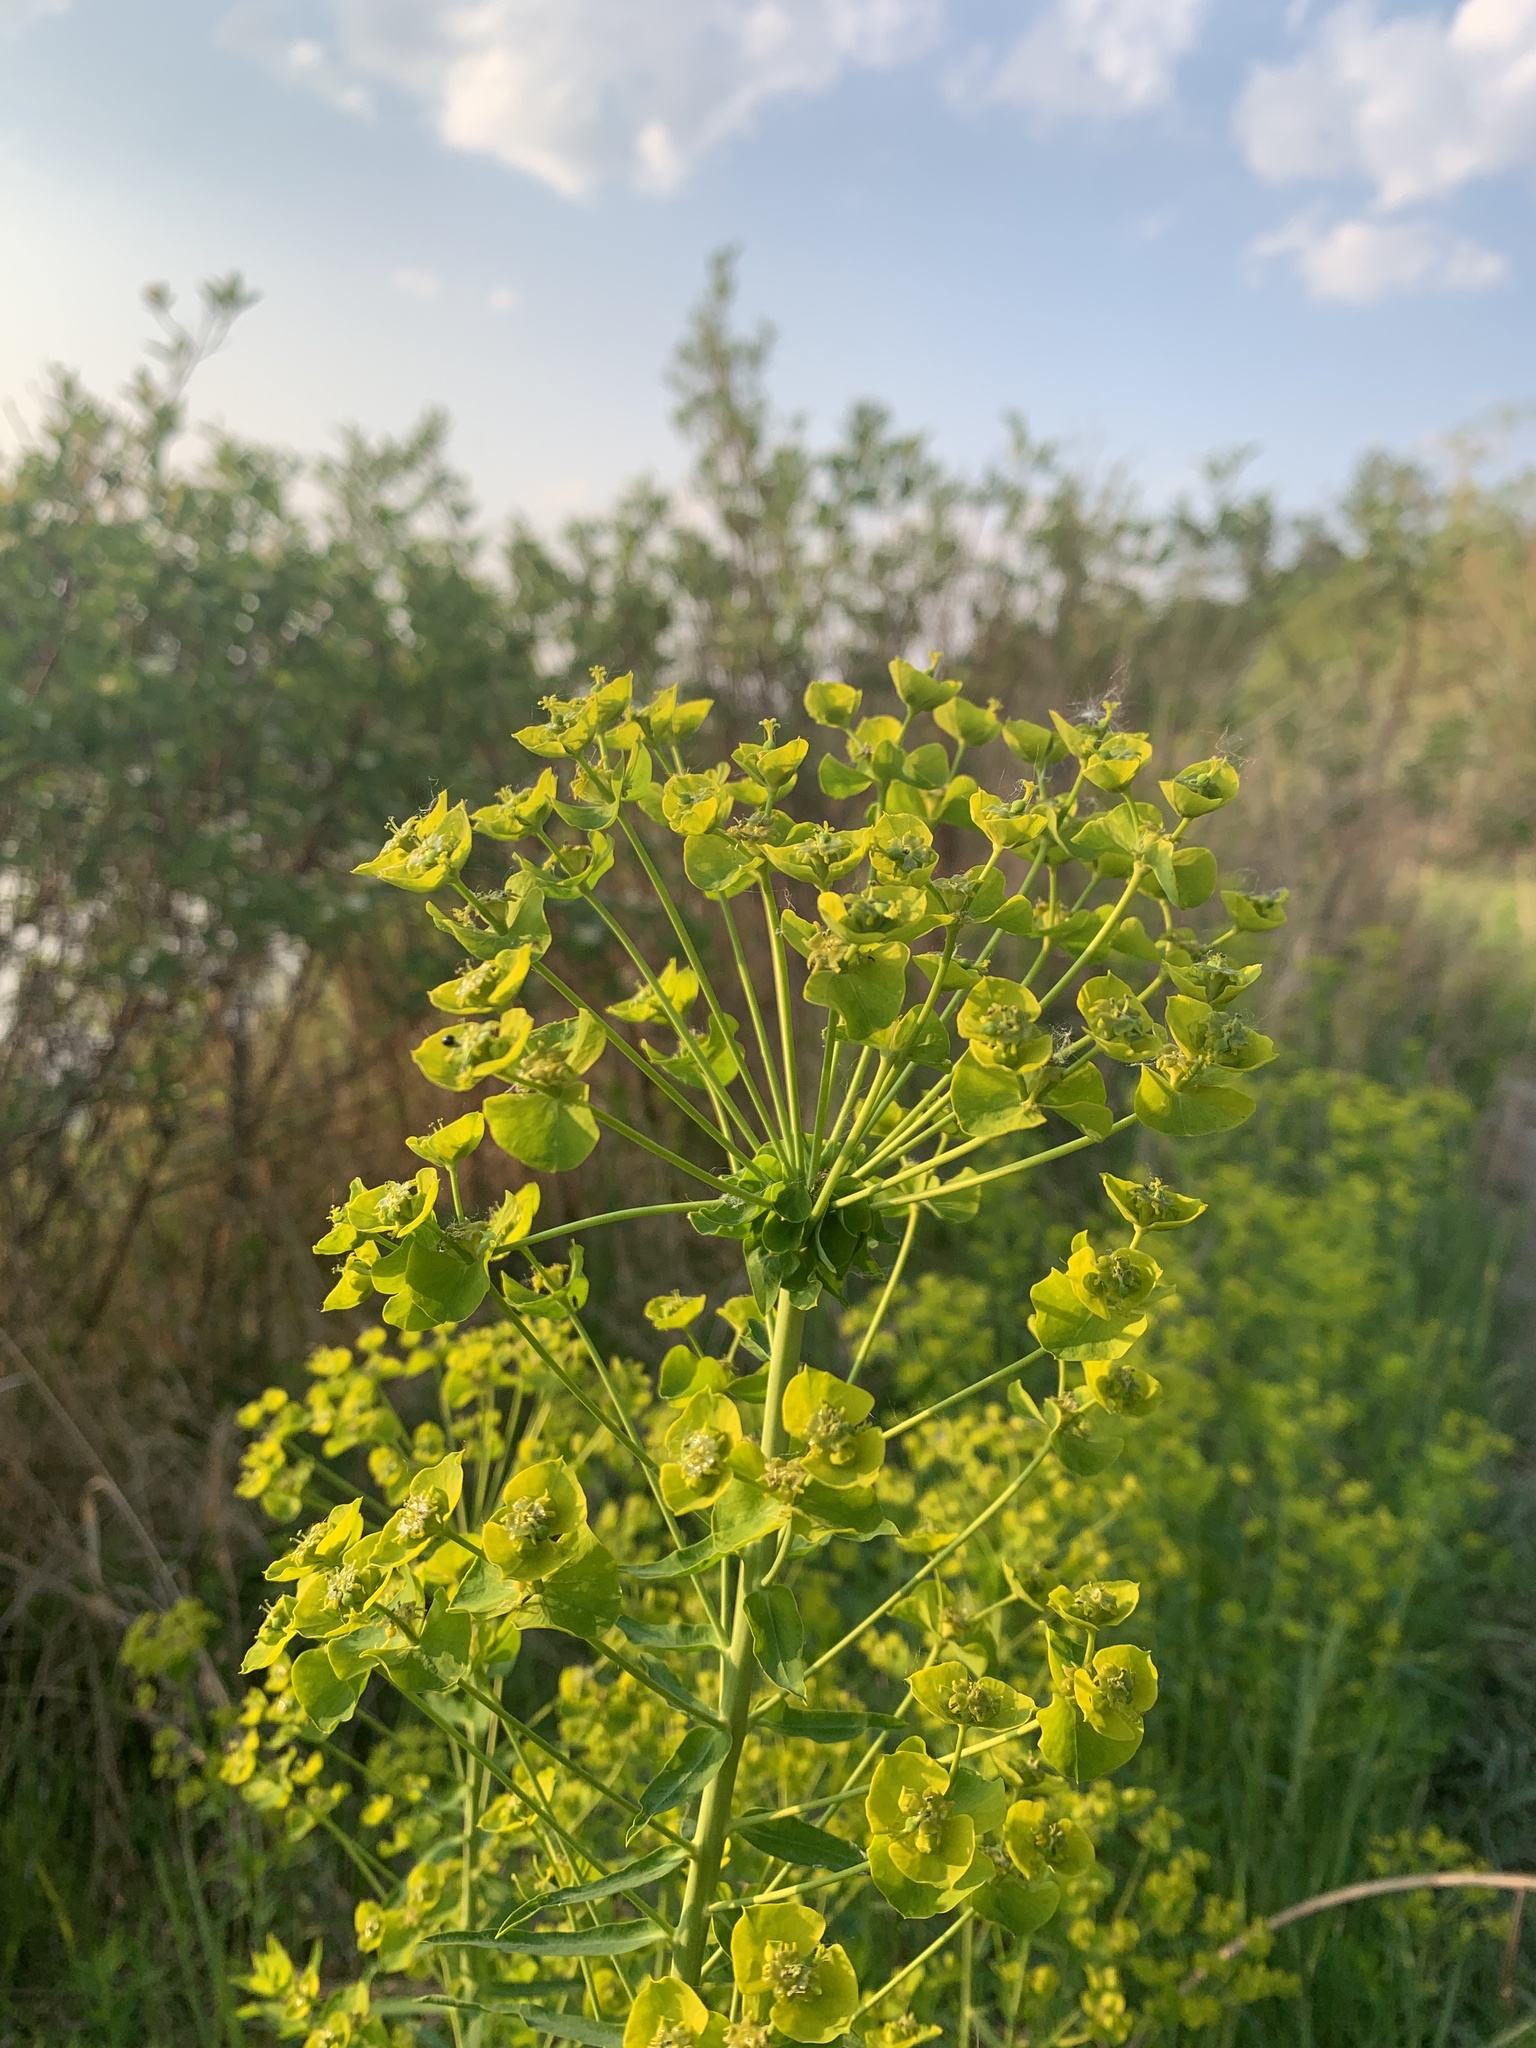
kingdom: Plantae
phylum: Tracheophyta
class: Magnoliopsida
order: Malpighiales
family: Euphorbiaceae
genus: Euphorbia
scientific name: Euphorbia virgata
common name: Leafy spurge
